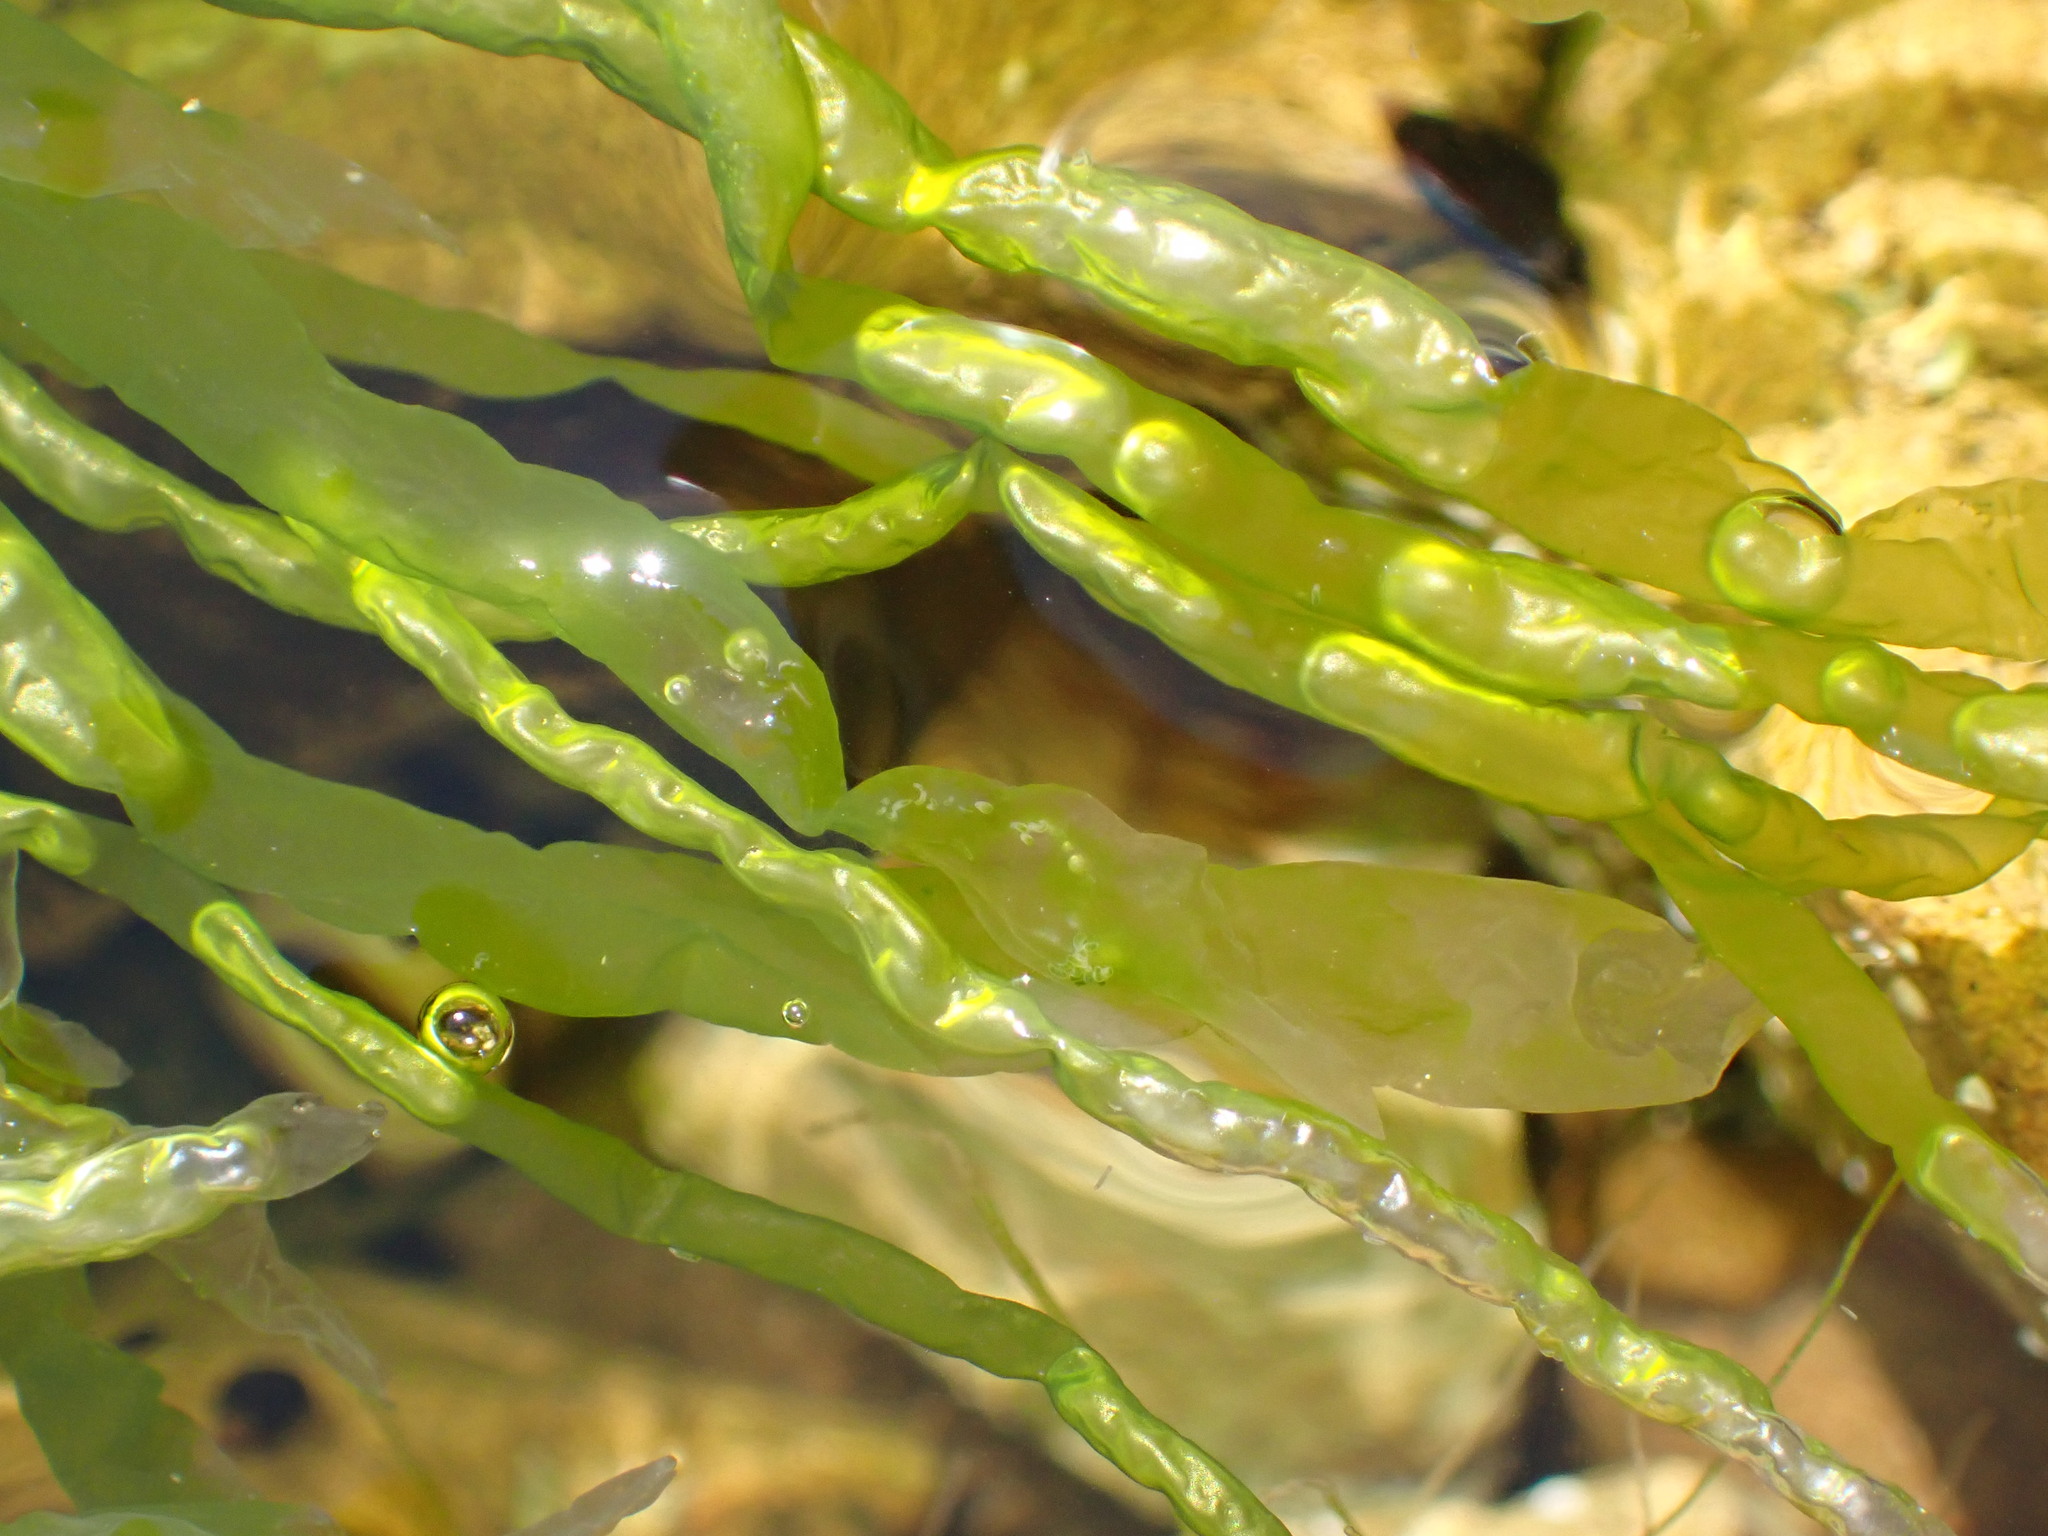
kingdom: Plantae
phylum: Chlorophyta
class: Ulvophyceae
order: Ulvales
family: Ulvaceae
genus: Ulva
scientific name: Ulva intestinalis
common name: Gut weed
